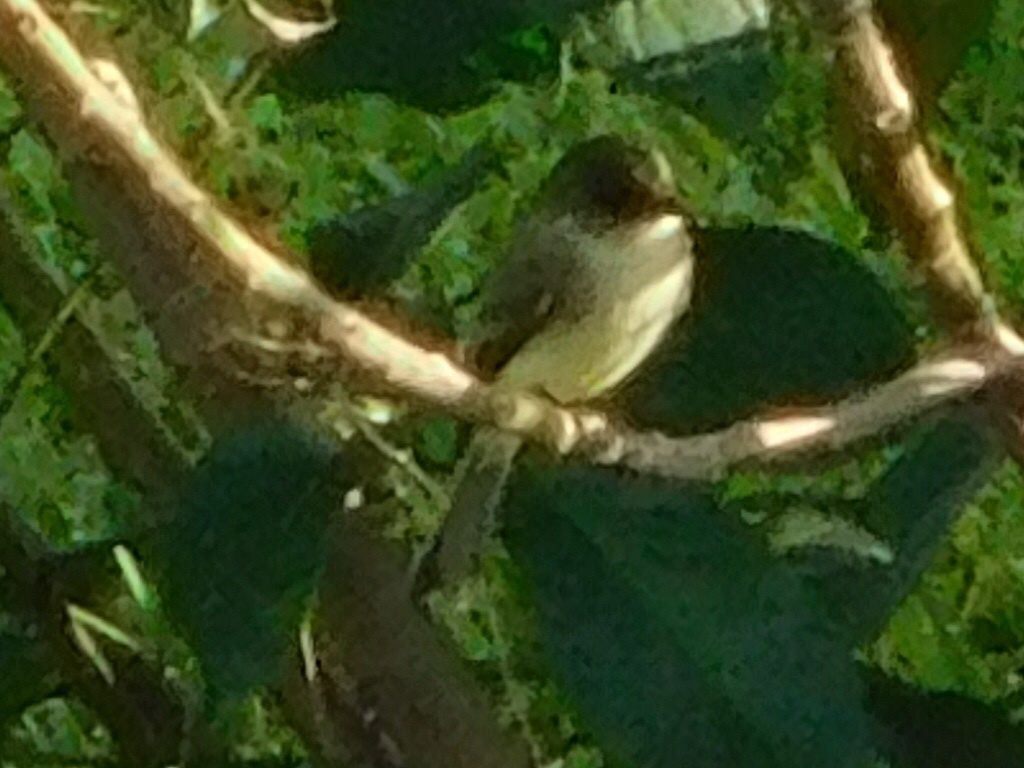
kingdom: Animalia
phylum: Chordata
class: Aves
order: Passeriformes
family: Tyrannidae
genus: Sayornis
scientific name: Sayornis phoebe
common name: Eastern phoebe
